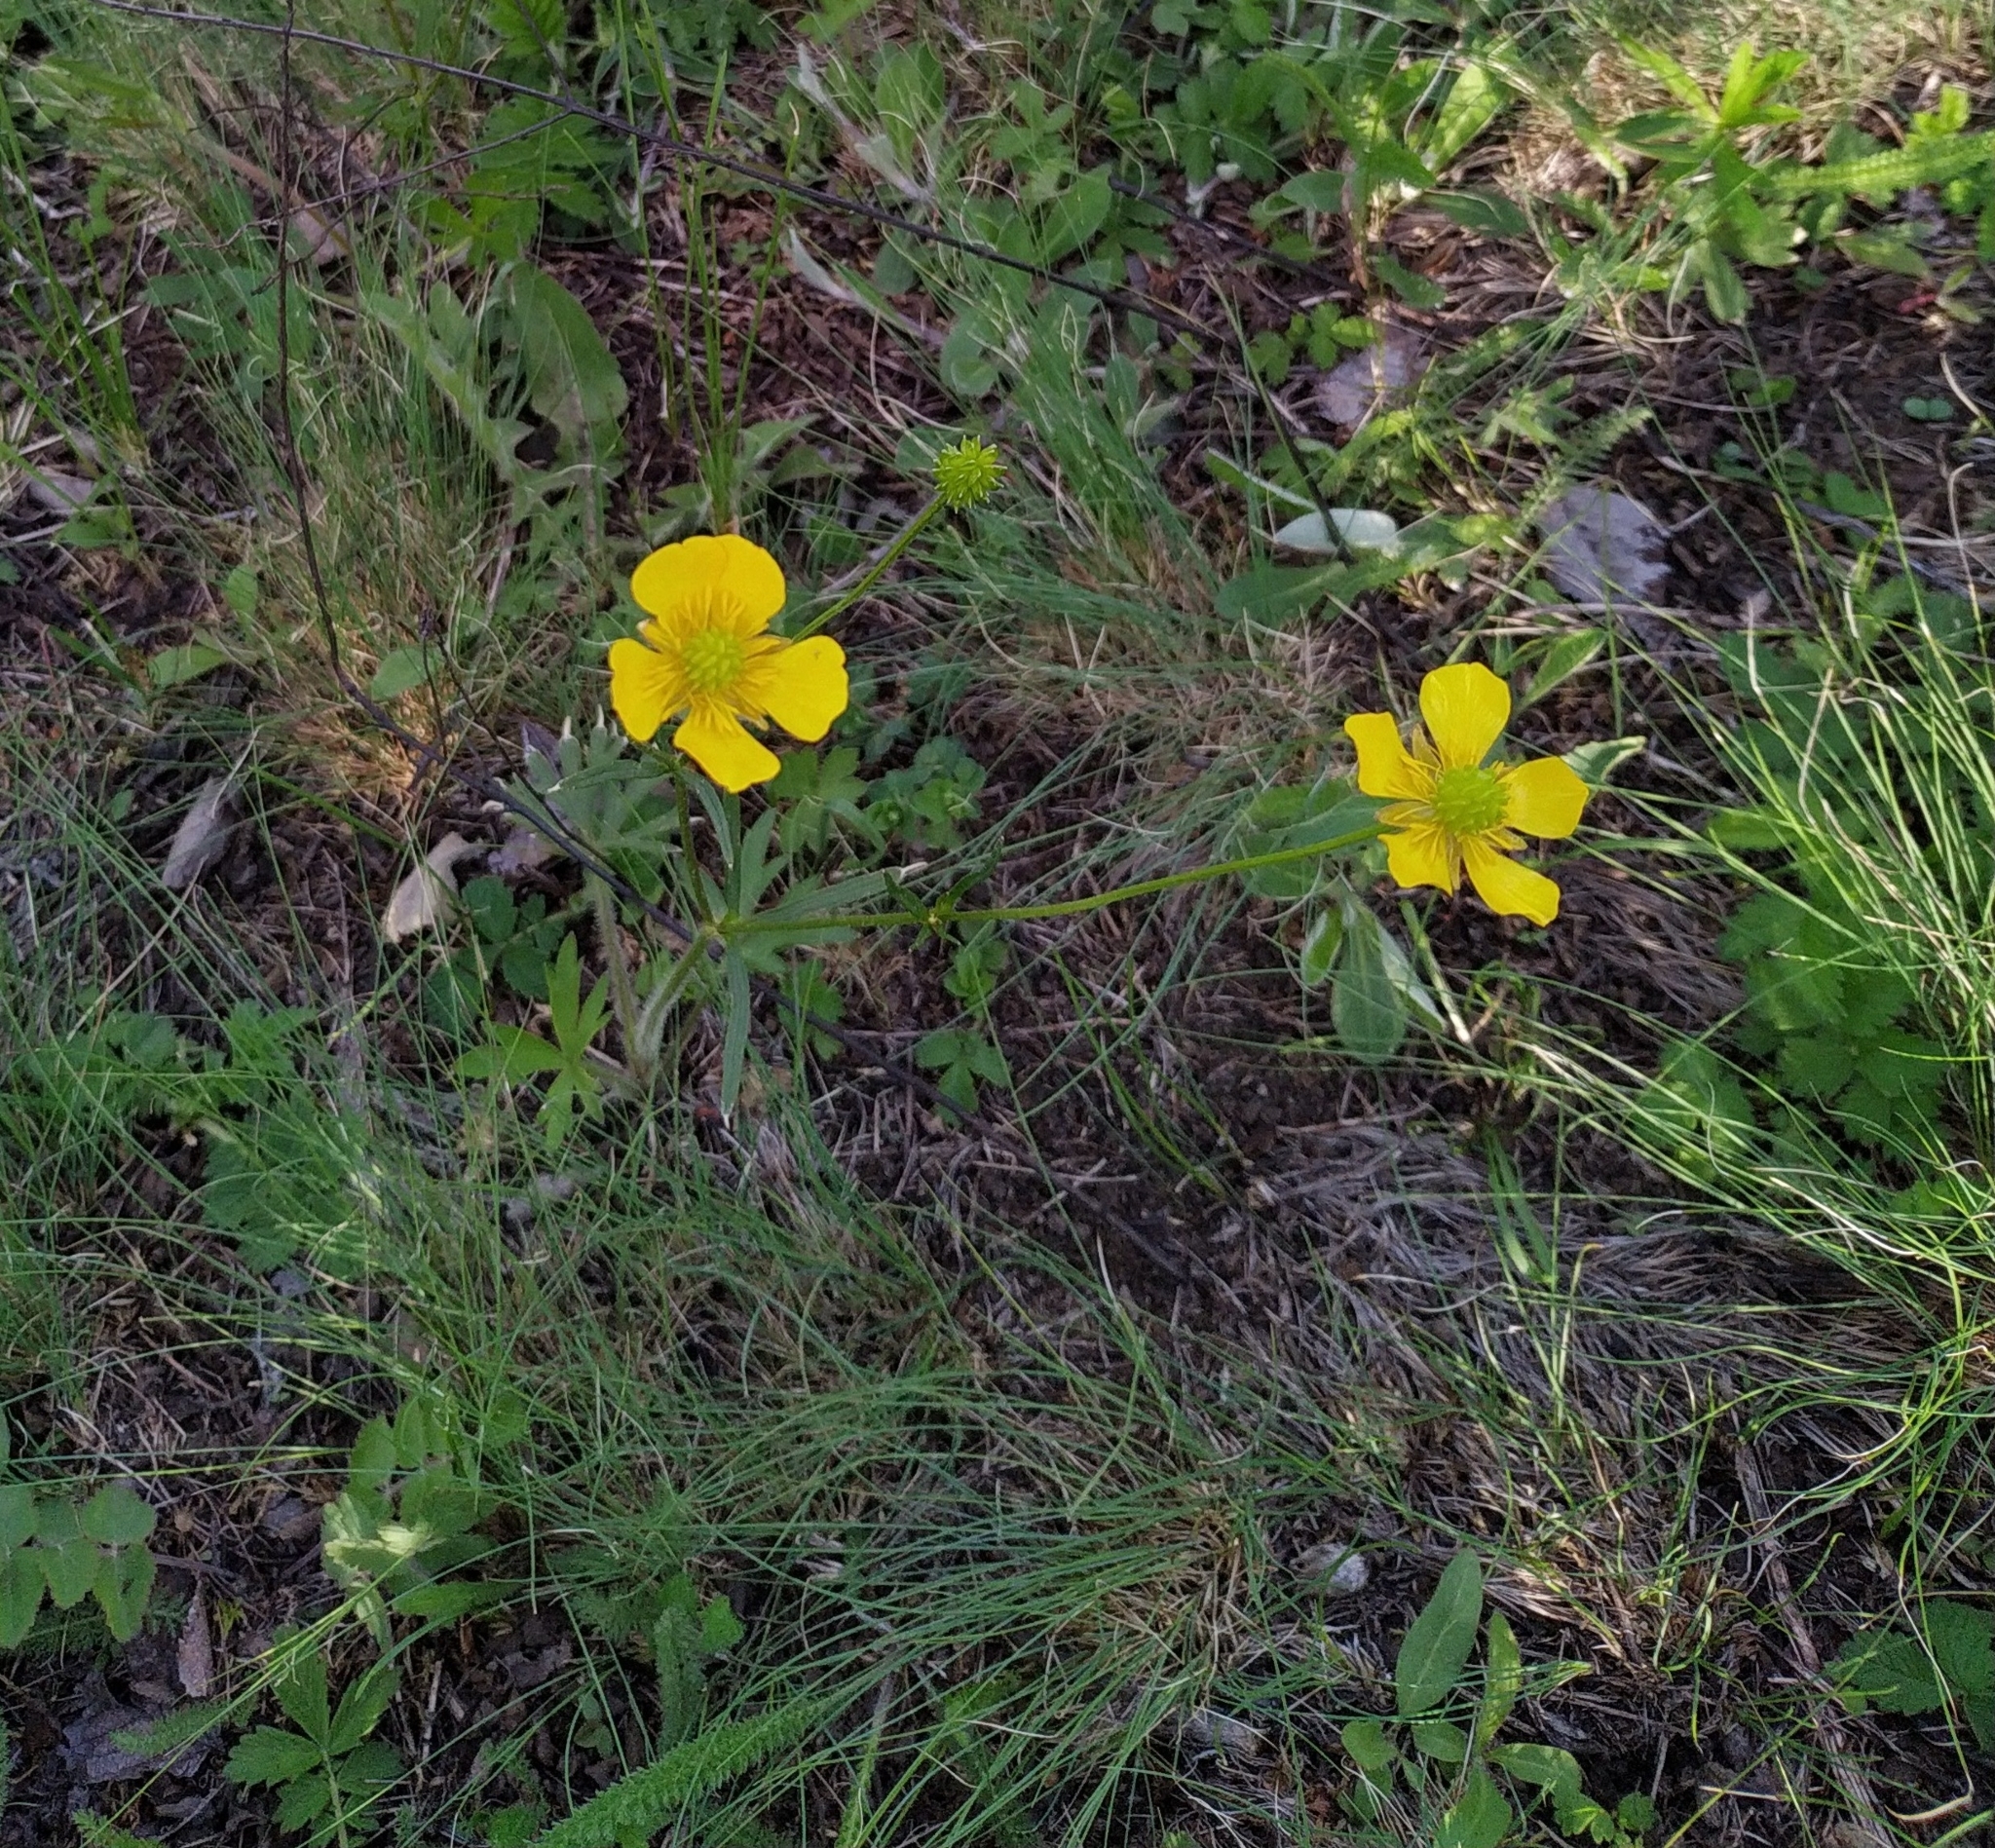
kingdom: Plantae
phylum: Tracheophyta
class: Magnoliopsida
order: Ranunculales
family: Ranunculaceae
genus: Ranunculus
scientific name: Ranunculus polyanthemos
